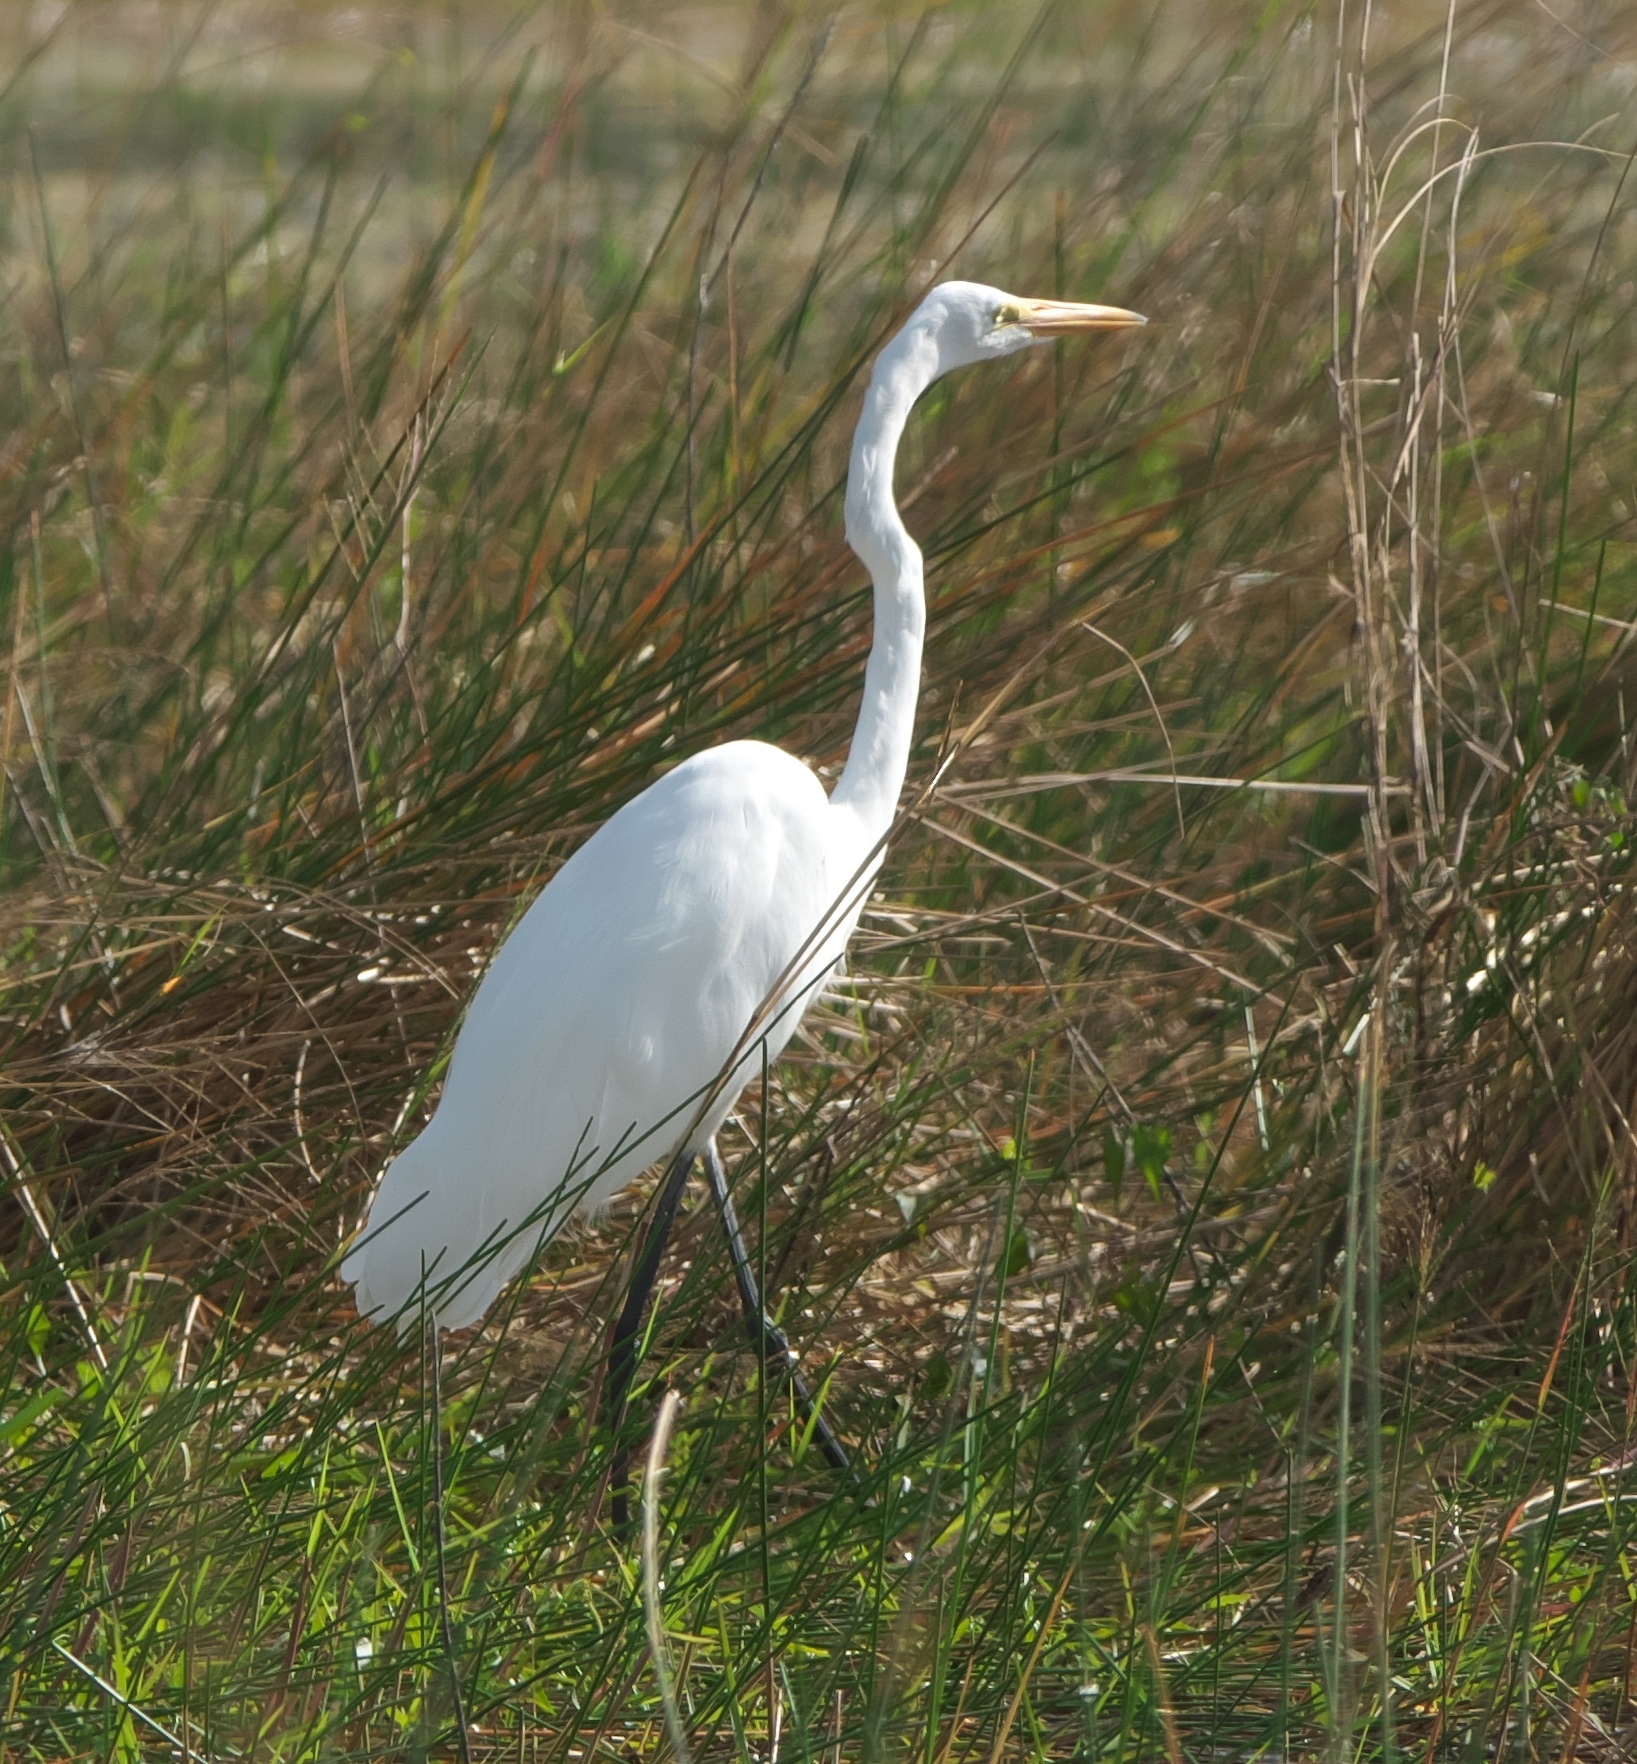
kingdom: Animalia
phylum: Chordata
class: Aves
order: Pelecaniformes
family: Ardeidae
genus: Ardea
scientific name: Ardea alba
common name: Great egret
